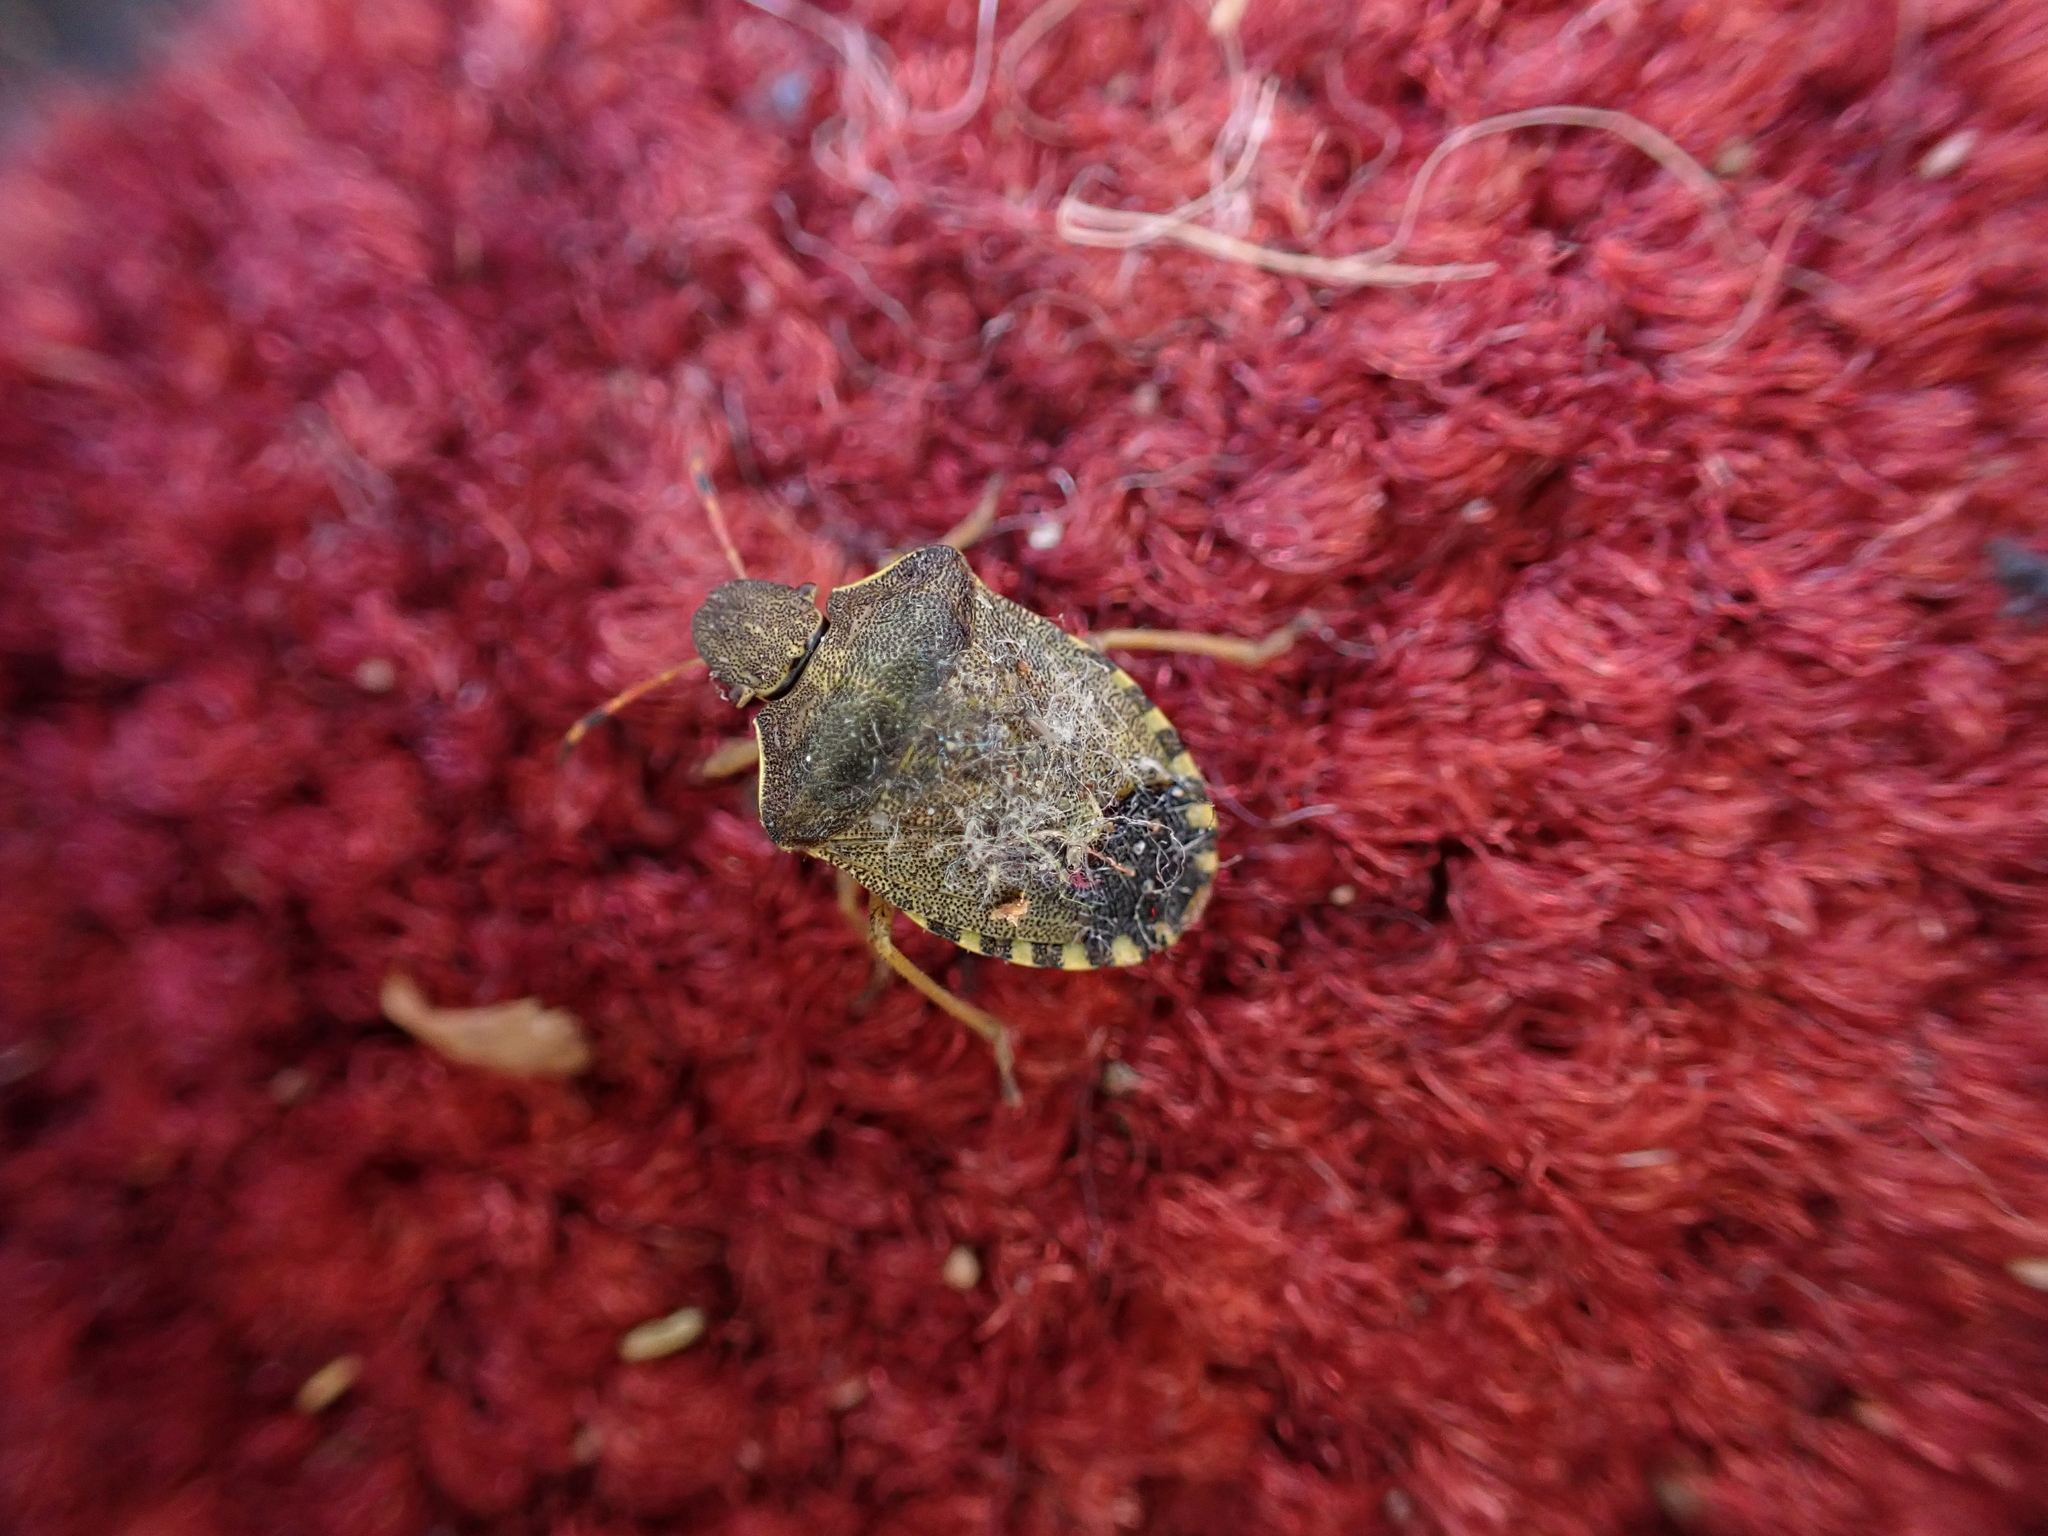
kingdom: Animalia
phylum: Arthropoda
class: Insecta
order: Hemiptera
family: Pentatomidae
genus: Holcostethus
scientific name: Holcostethus strictus
